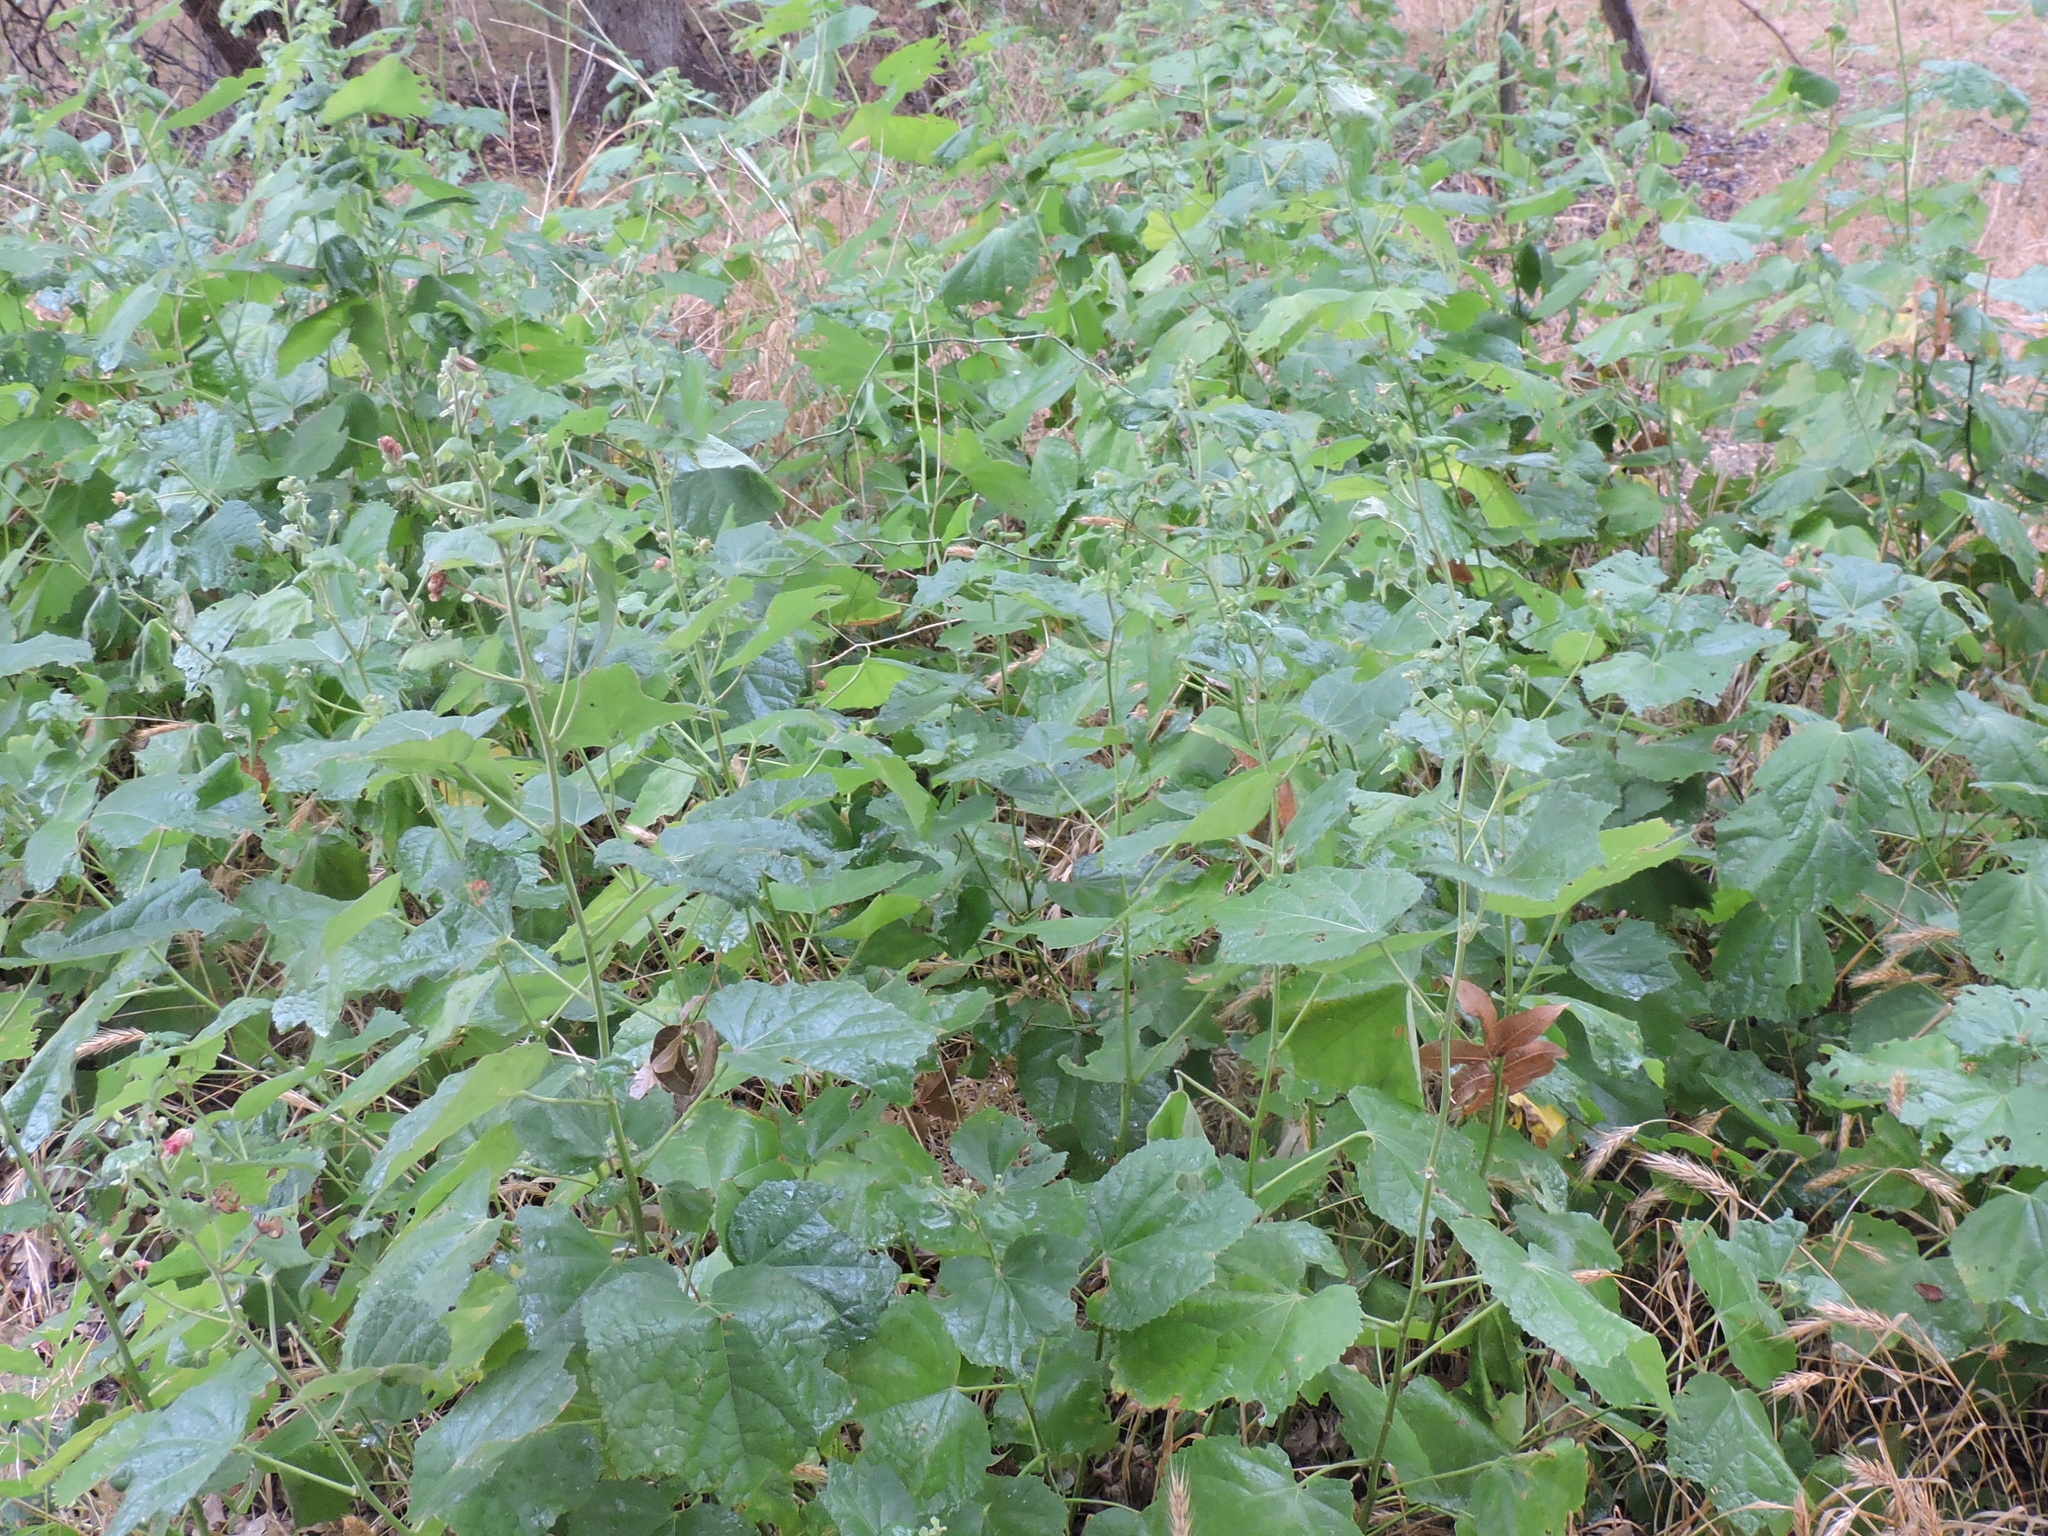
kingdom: Plantae
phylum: Tracheophyta
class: Magnoliopsida
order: Malvales
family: Malvaceae
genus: Malvaviscus
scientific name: Malvaviscus arboreus
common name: Wax mallow
